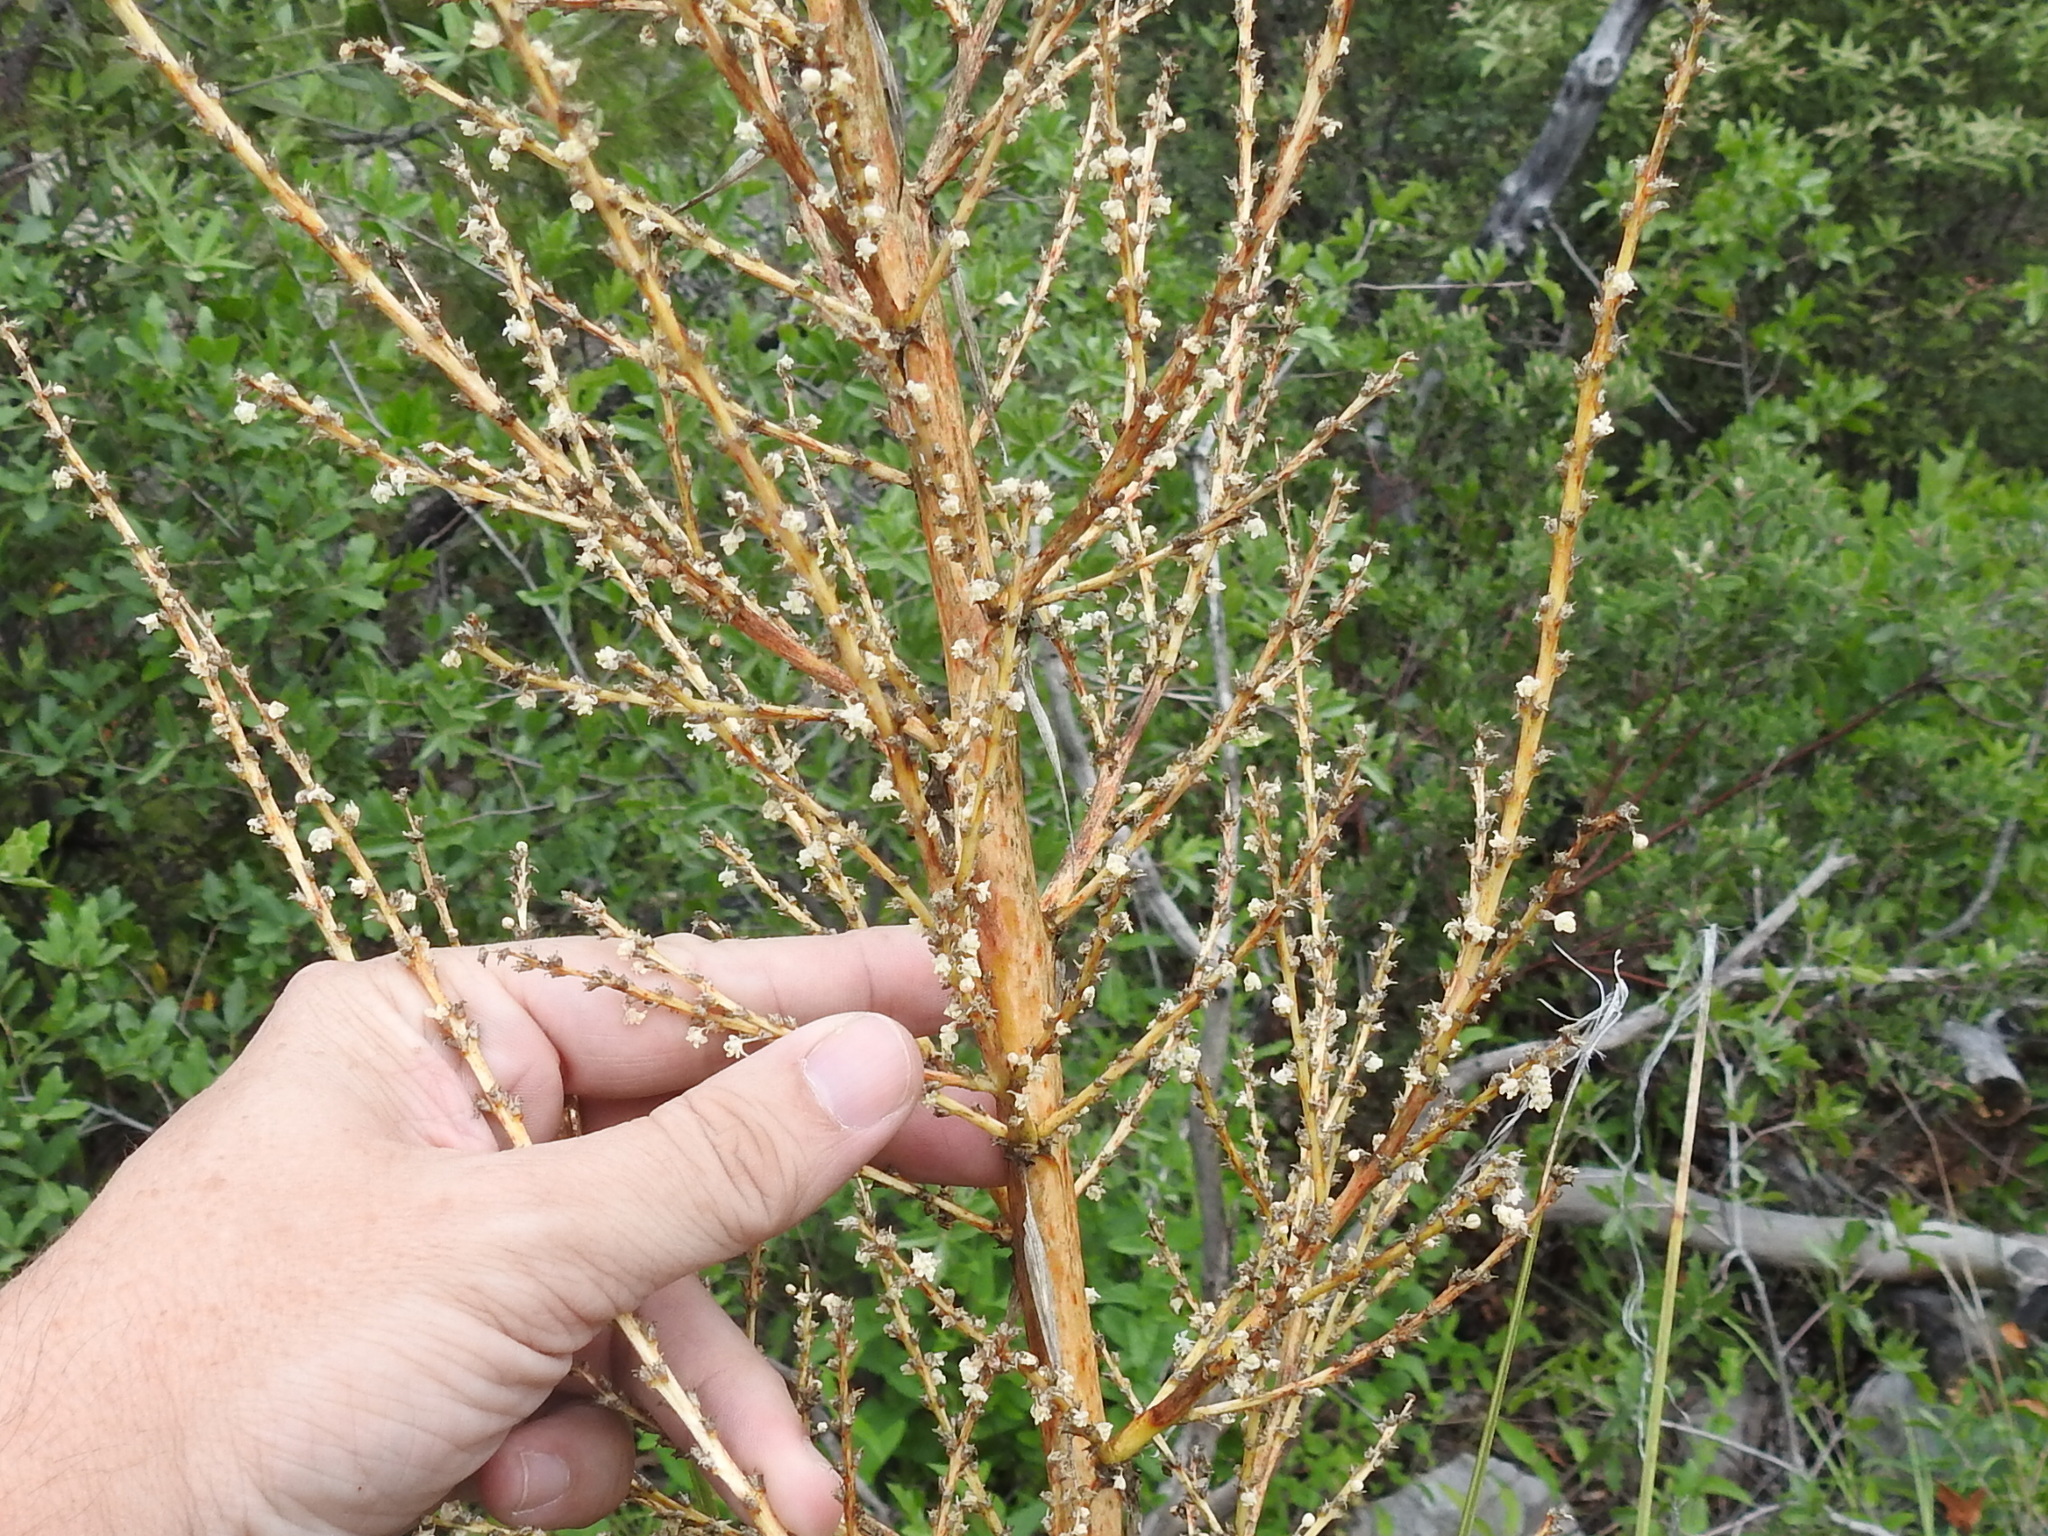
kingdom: Plantae
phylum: Tracheophyta
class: Liliopsida
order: Asparagales
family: Asparagaceae
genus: Nolina
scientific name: Nolina microcarpa
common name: Bear-grass
